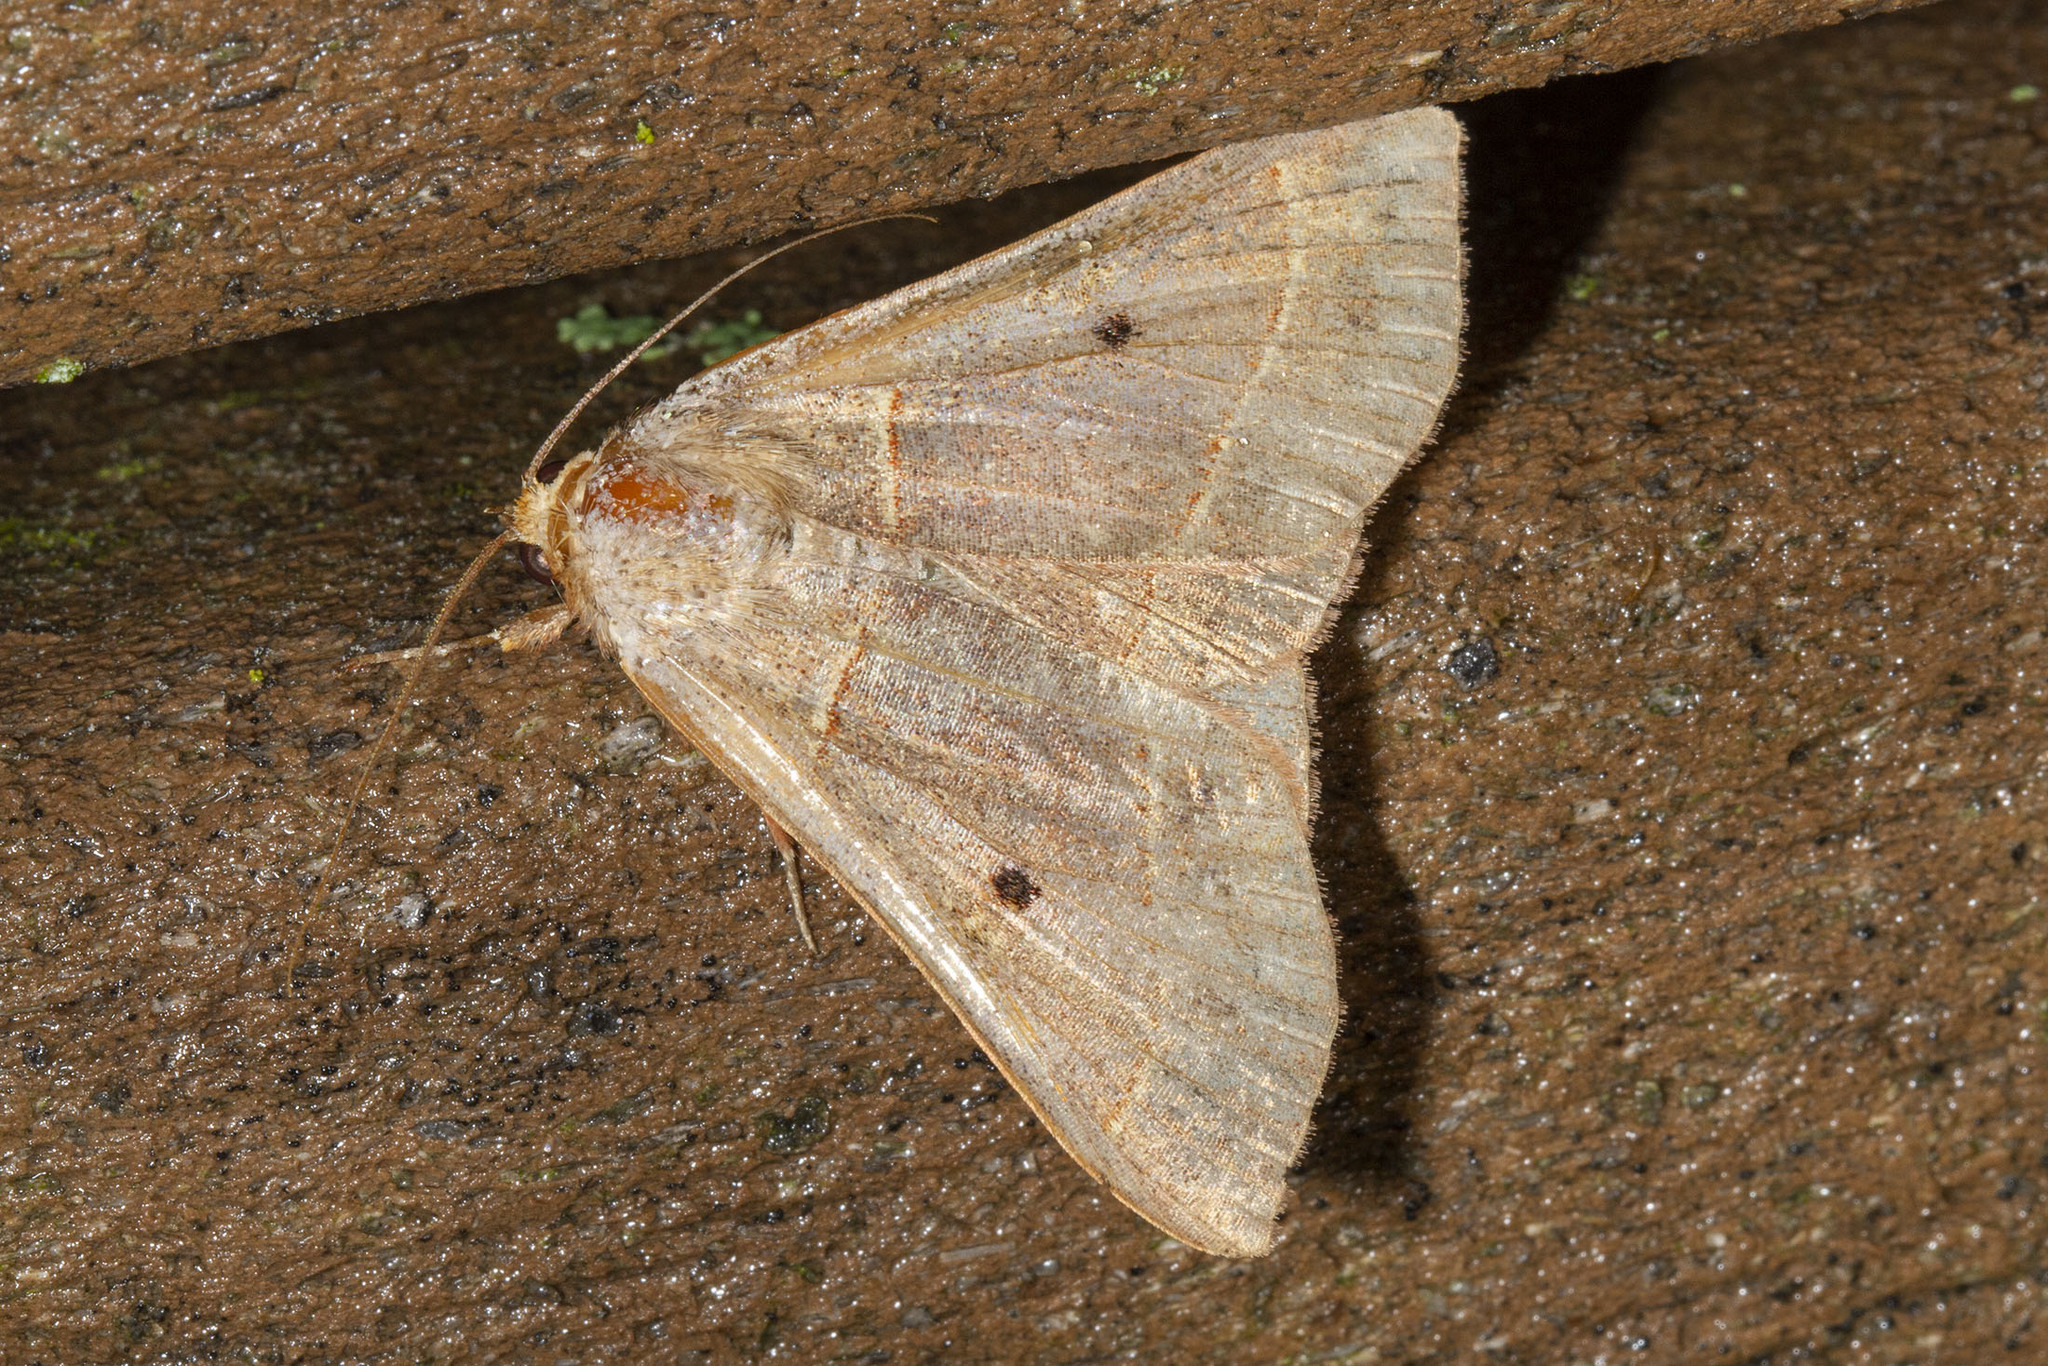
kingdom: Animalia
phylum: Arthropoda
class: Insecta
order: Lepidoptera
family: Erebidae
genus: Panopoda
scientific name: Panopoda rufimargo
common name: Red-lined panopoda moth
